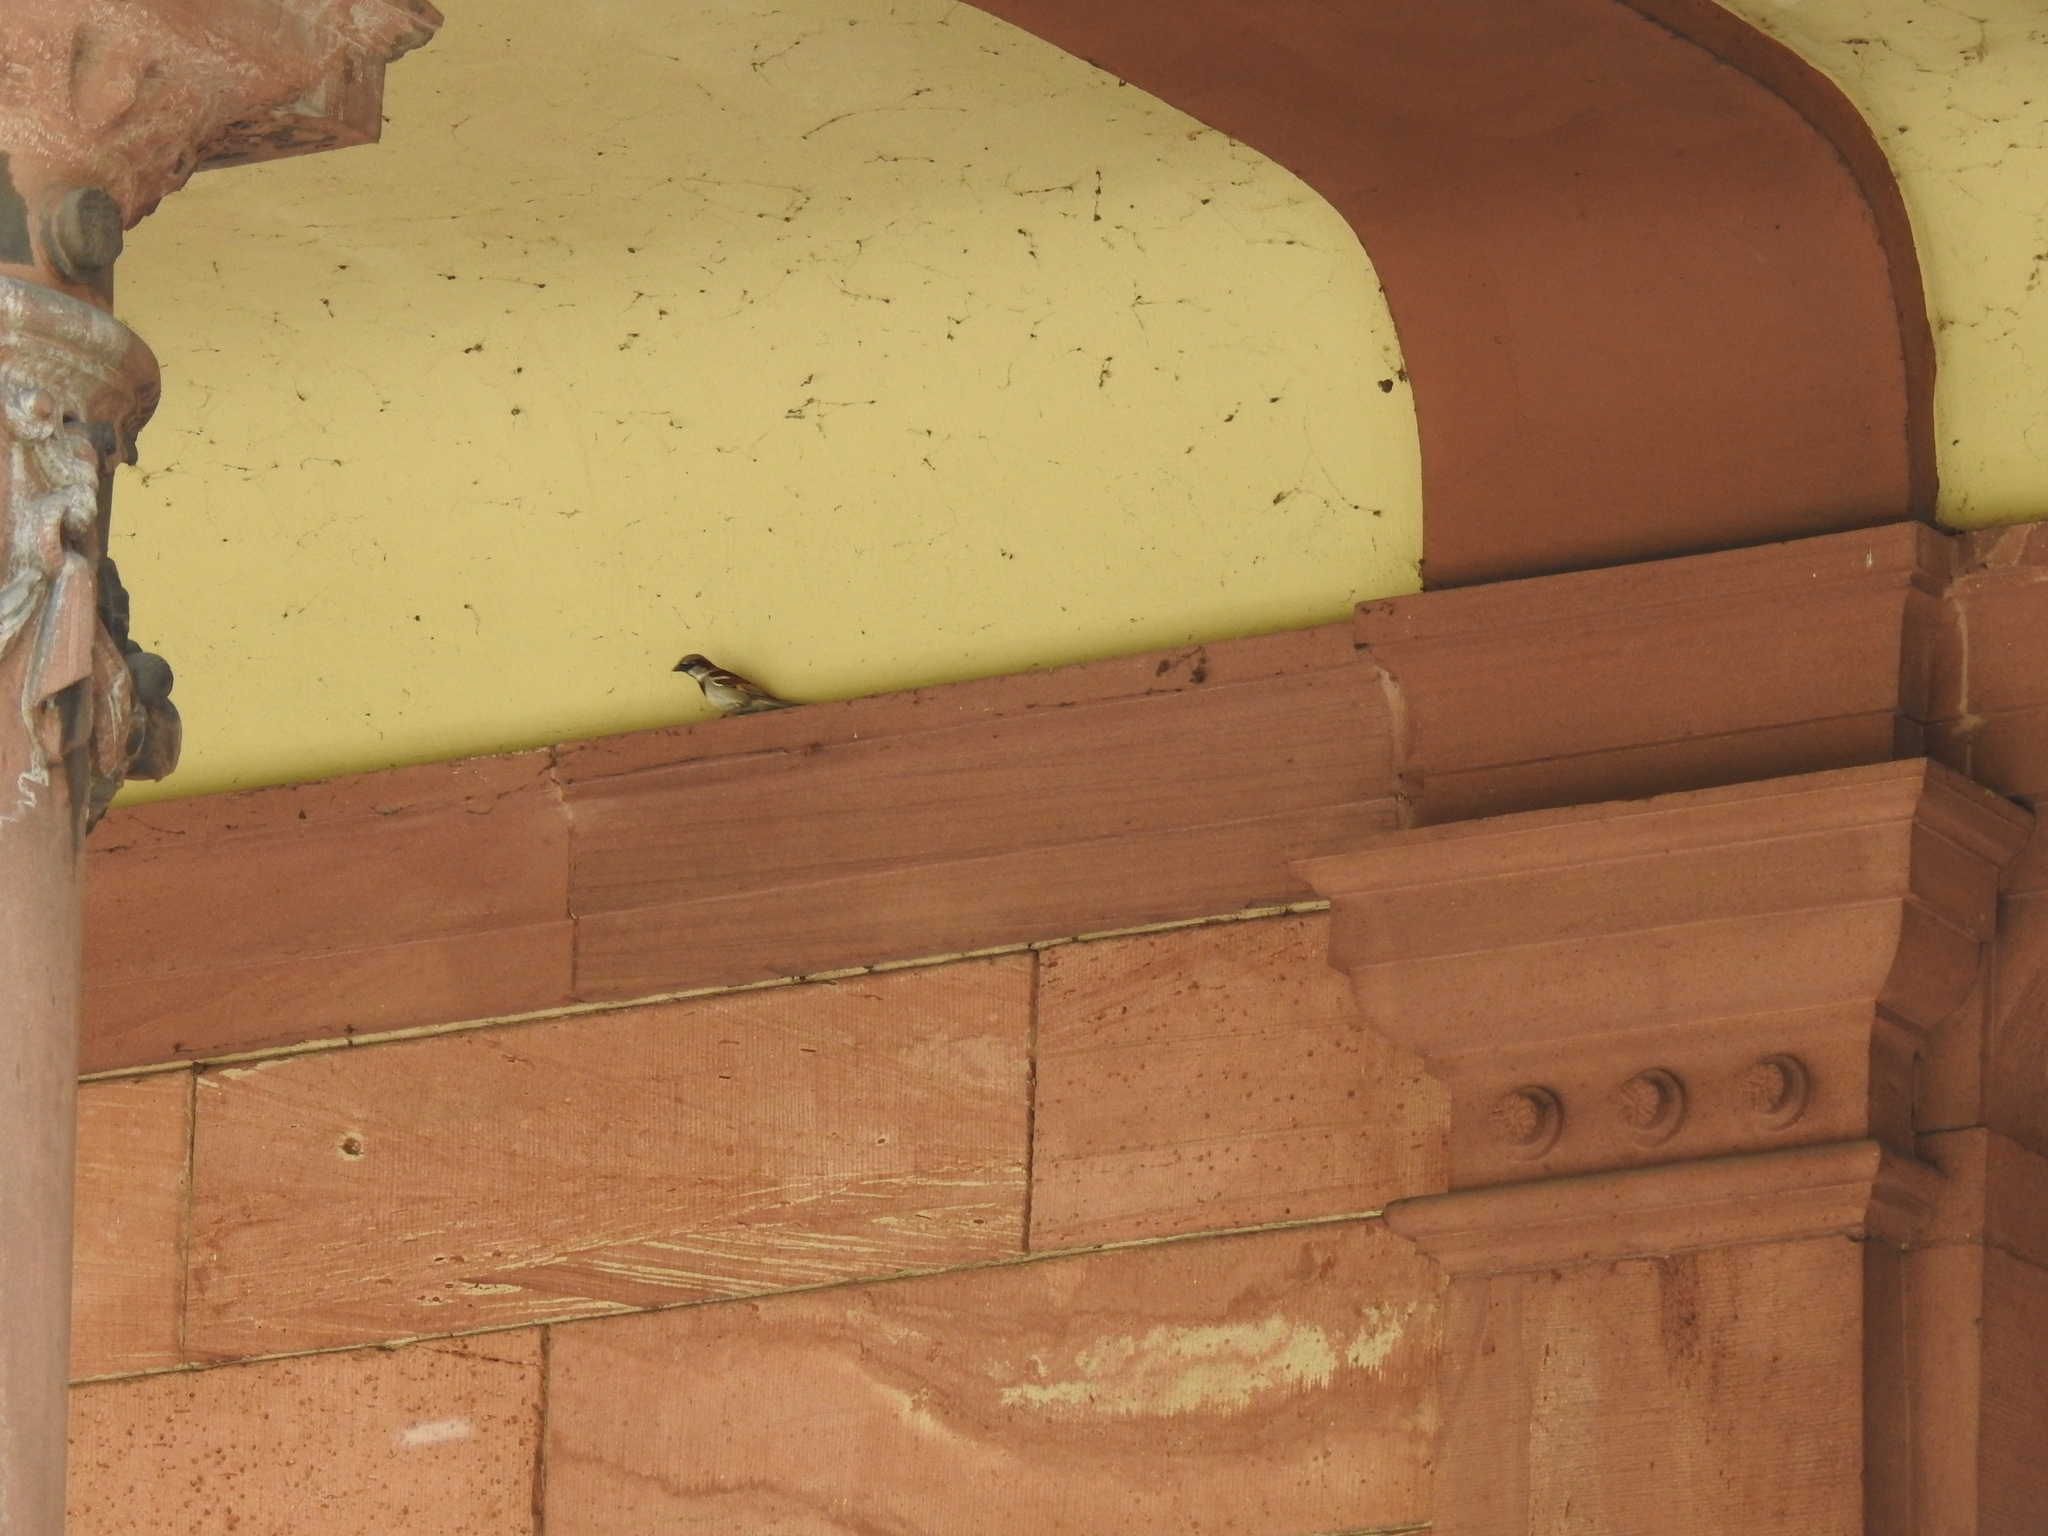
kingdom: Animalia
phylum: Chordata
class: Aves
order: Passeriformes
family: Passeridae
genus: Passer
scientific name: Passer domesticus
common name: House sparrow
